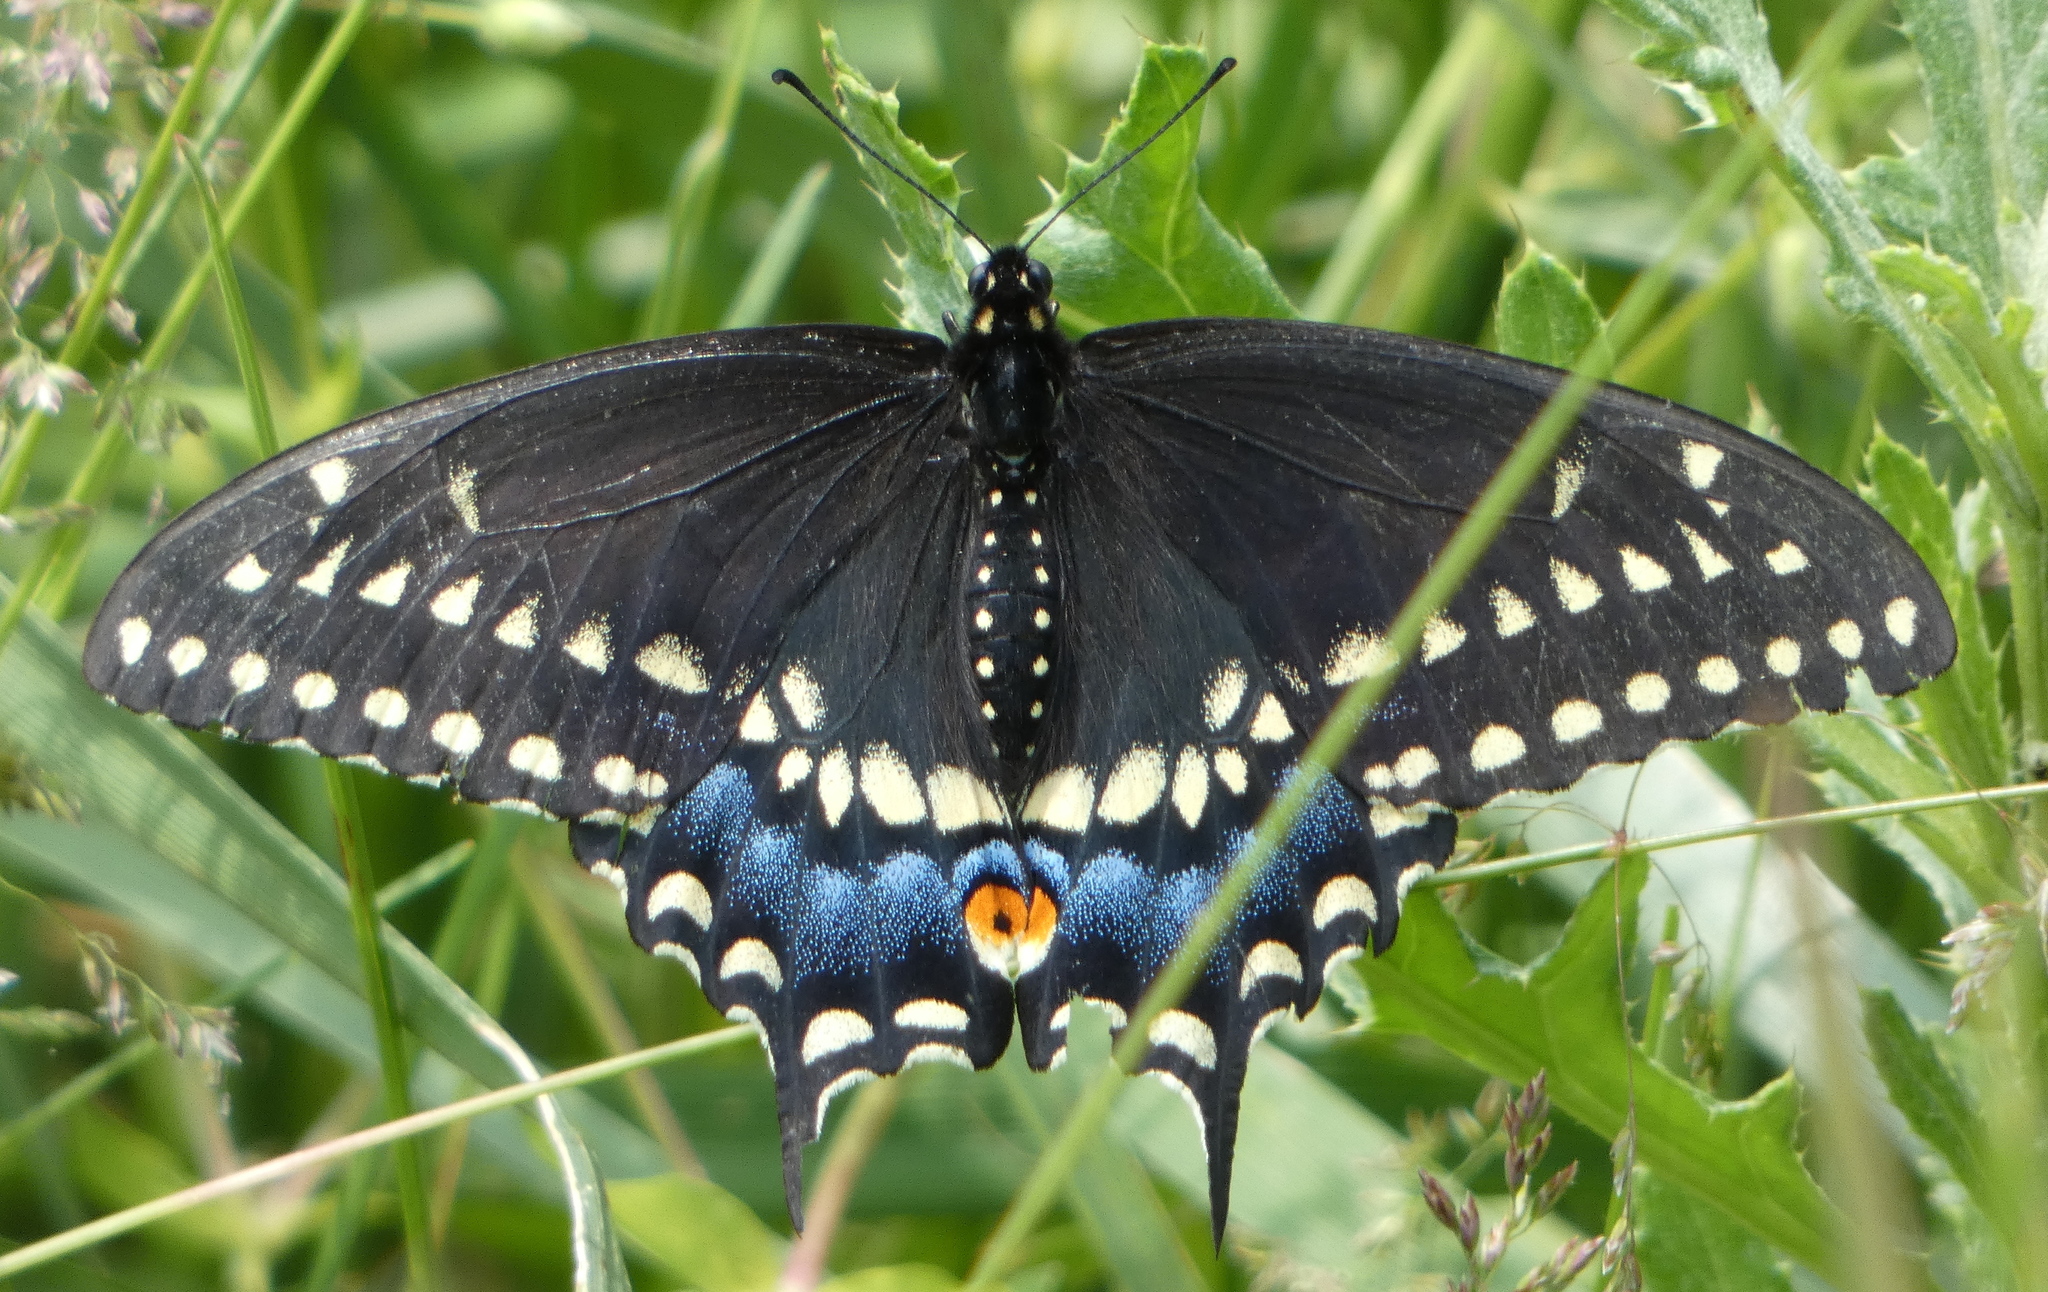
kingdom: Animalia
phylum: Arthropoda
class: Insecta
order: Lepidoptera
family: Papilionidae
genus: Papilio
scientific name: Papilio polyxenes
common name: Black swallowtail
